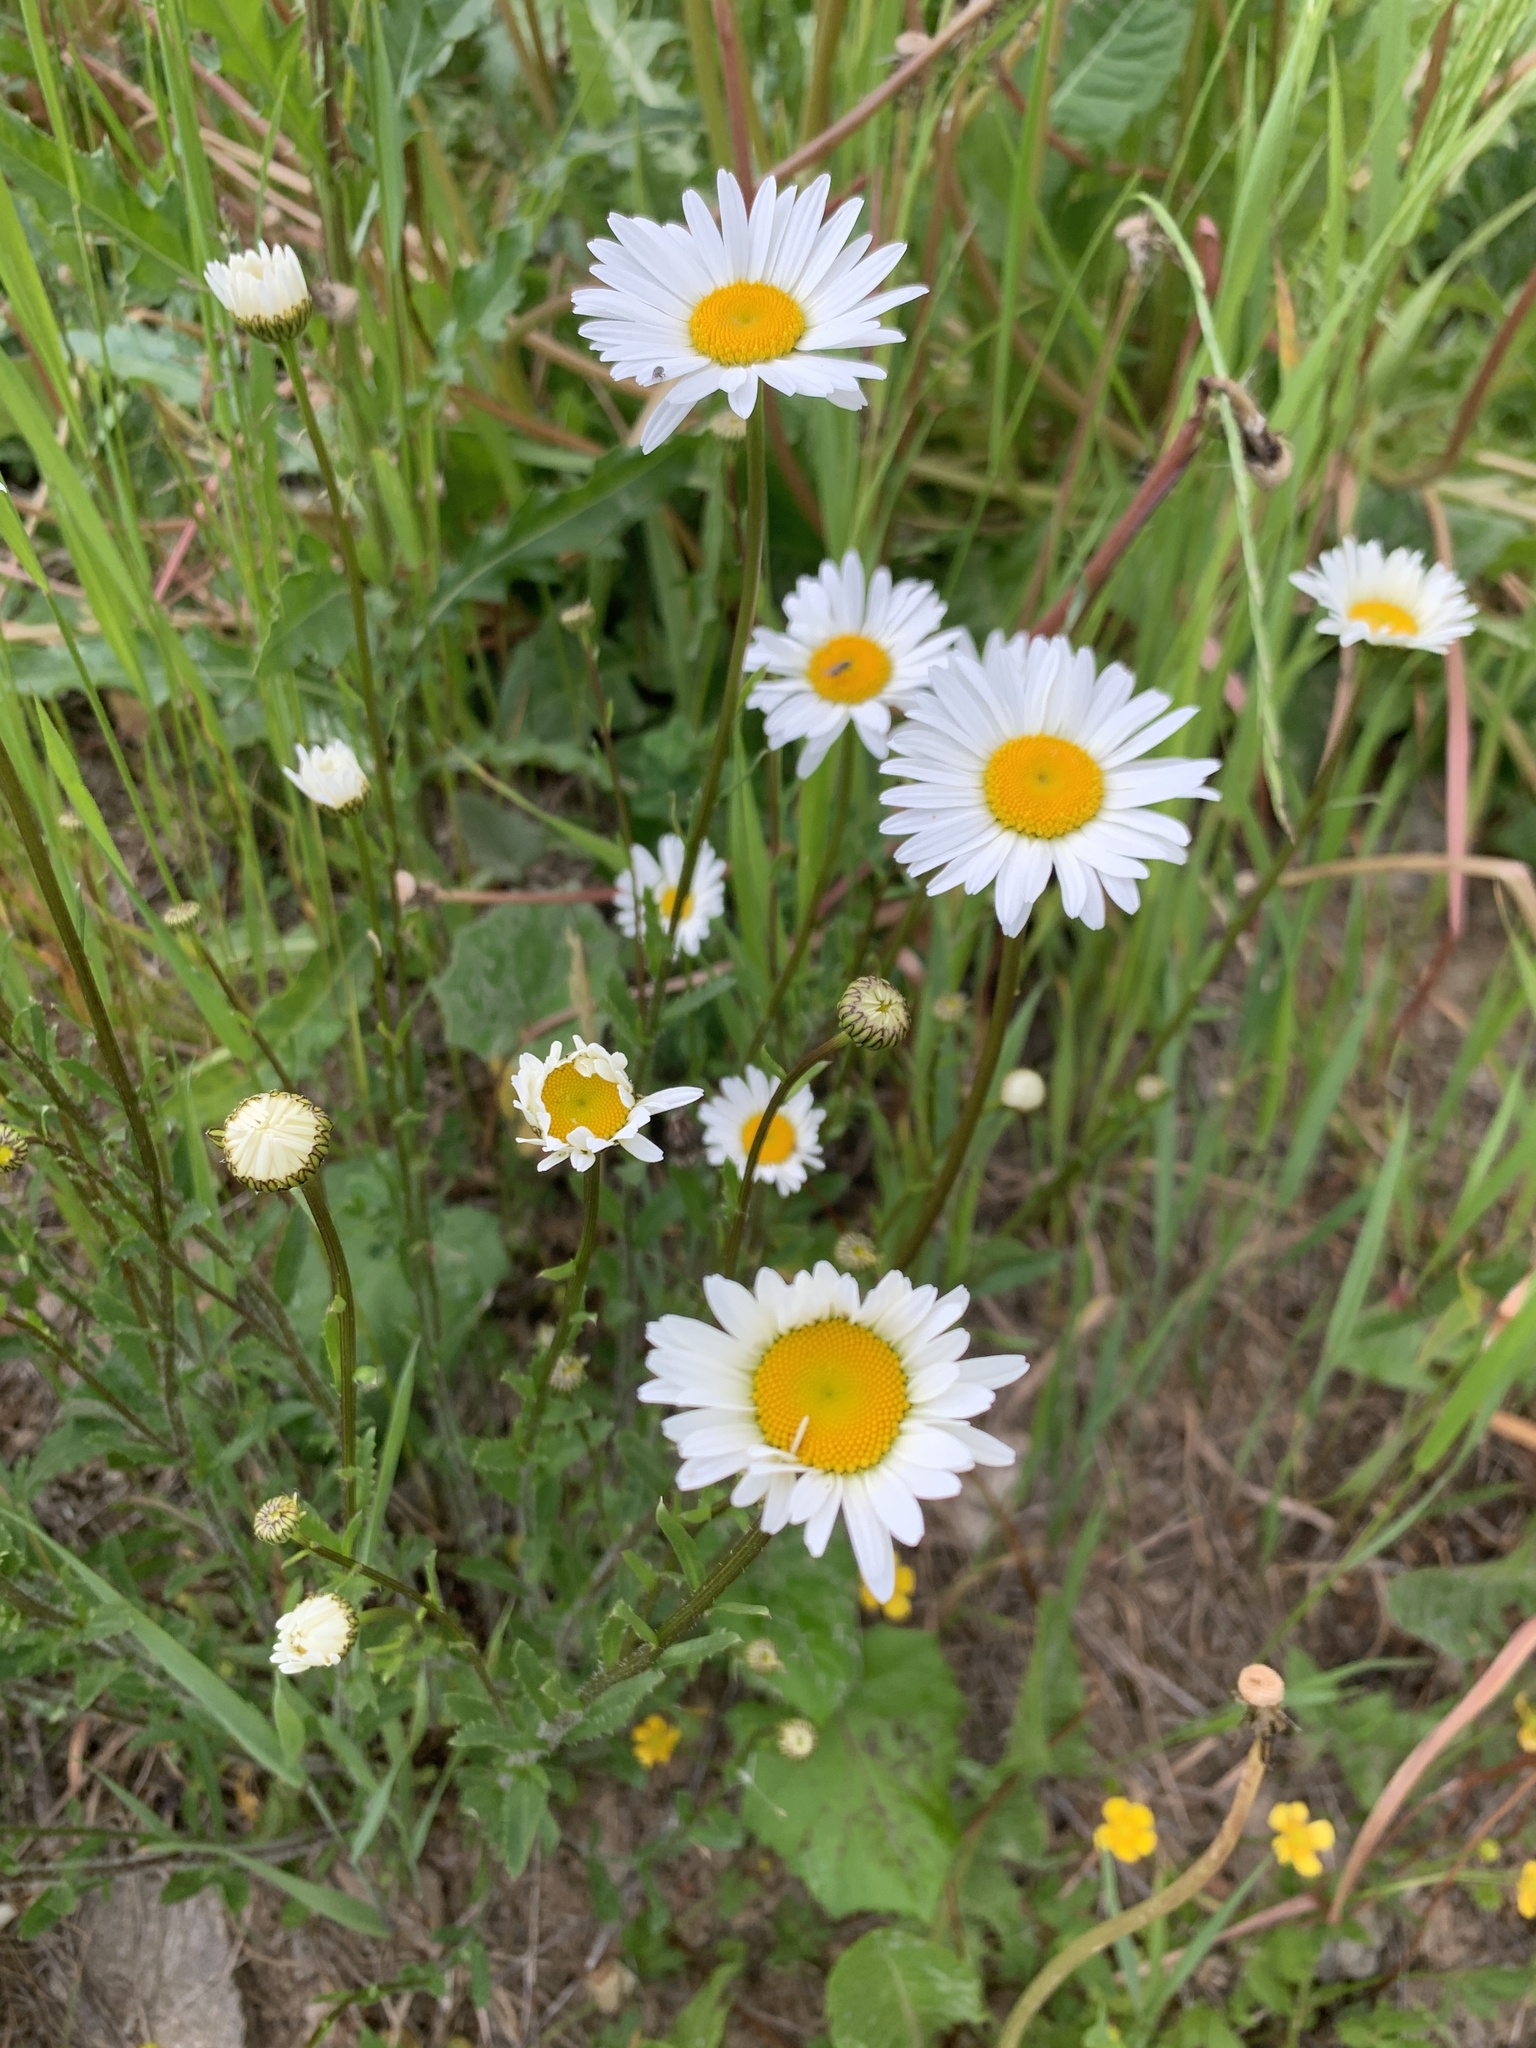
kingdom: Plantae
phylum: Tracheophyta
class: Magnoliopsida
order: Asterales
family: Asteraceae
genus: Leucanthemum
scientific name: Leucanthemum vulgare
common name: Oxeye daisy
